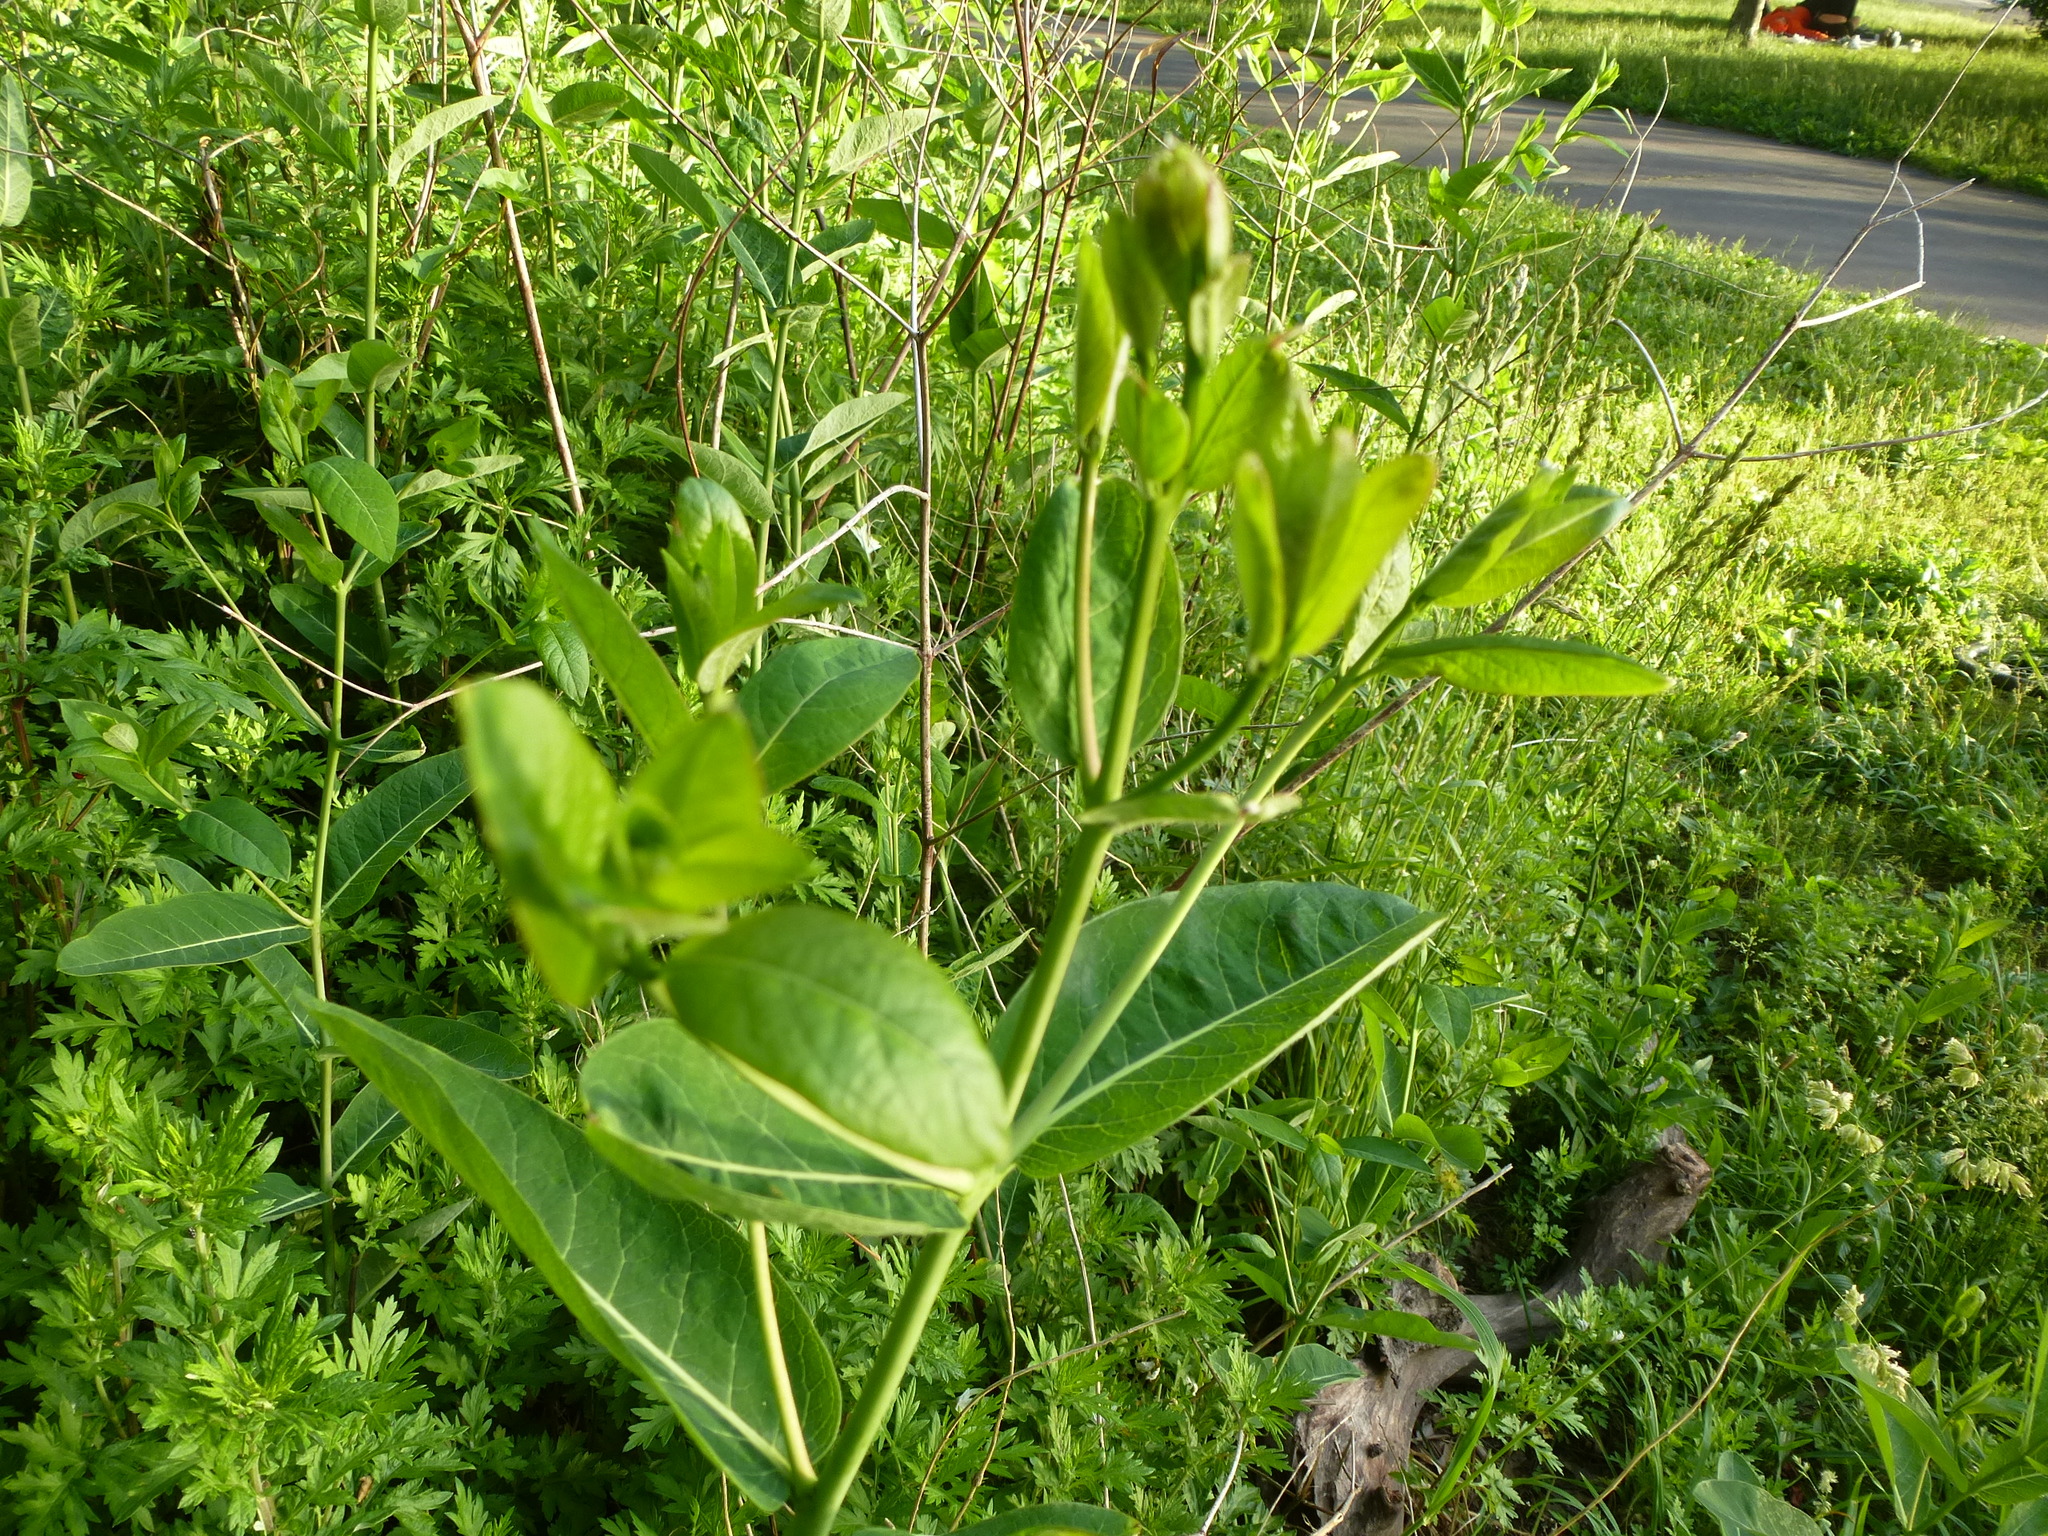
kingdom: Plantae
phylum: Tracheophyta
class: Magnoliopsida
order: Gentianales
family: Apocynaceae
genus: Apocynum
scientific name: Apocynum cannabinum
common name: Hemp dogbane
